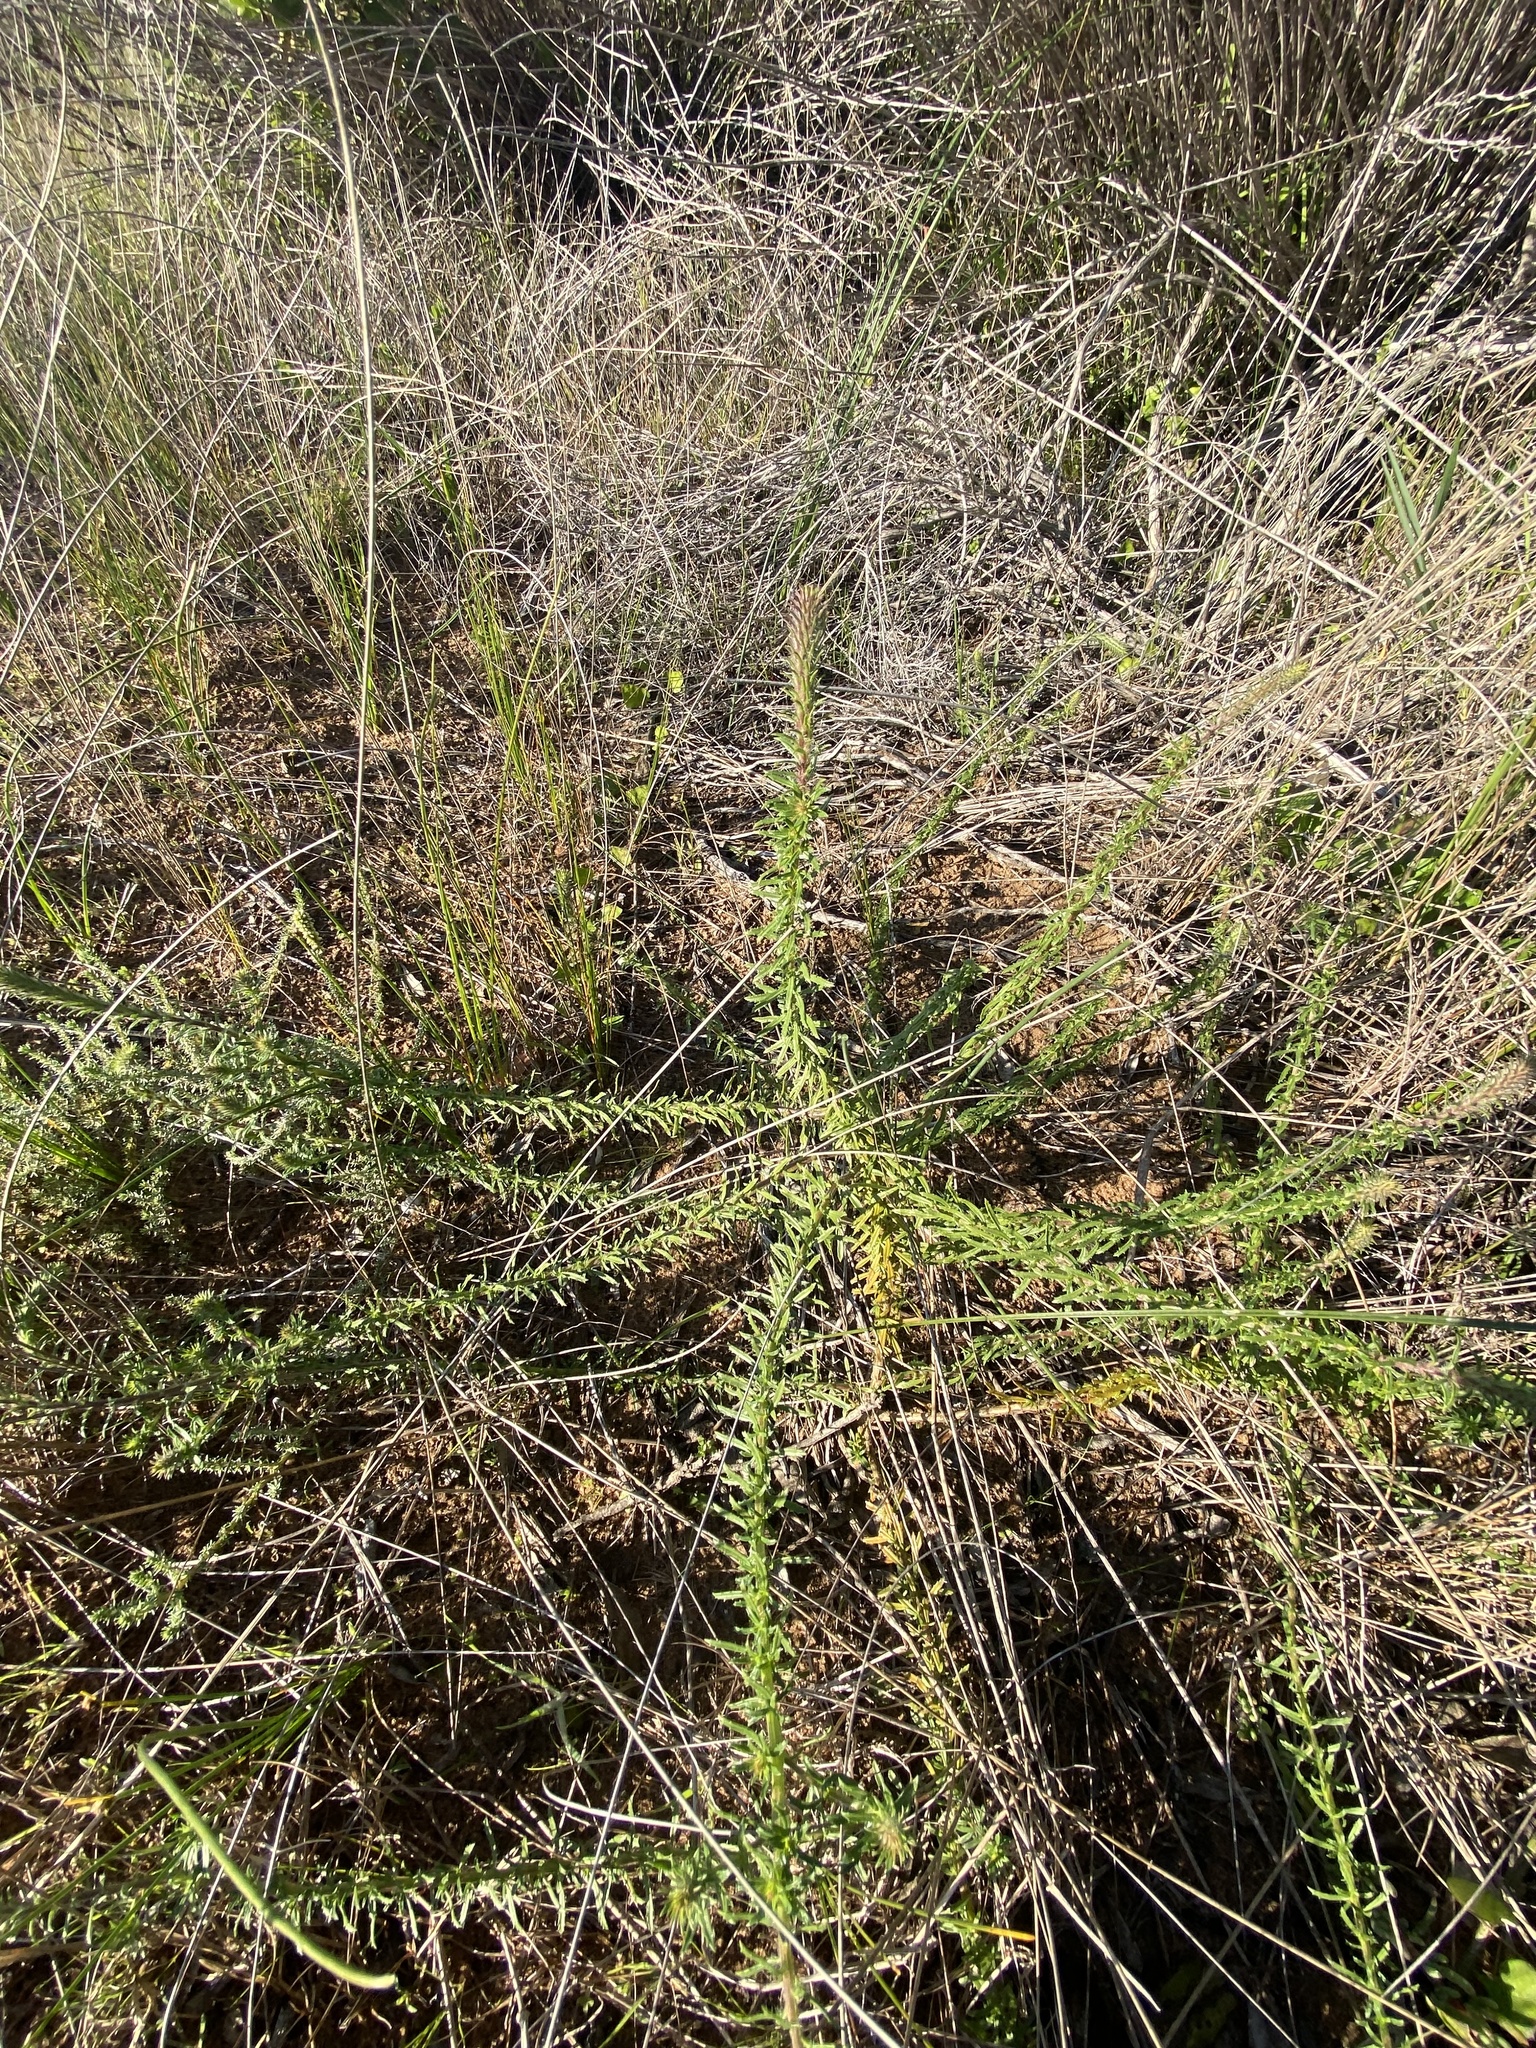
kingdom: Plantae
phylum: Tracheophyta
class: Magnoliopsida
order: Lamiales
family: Scrophulariaceae
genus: Dischisma
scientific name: Dischisma ciliatum
